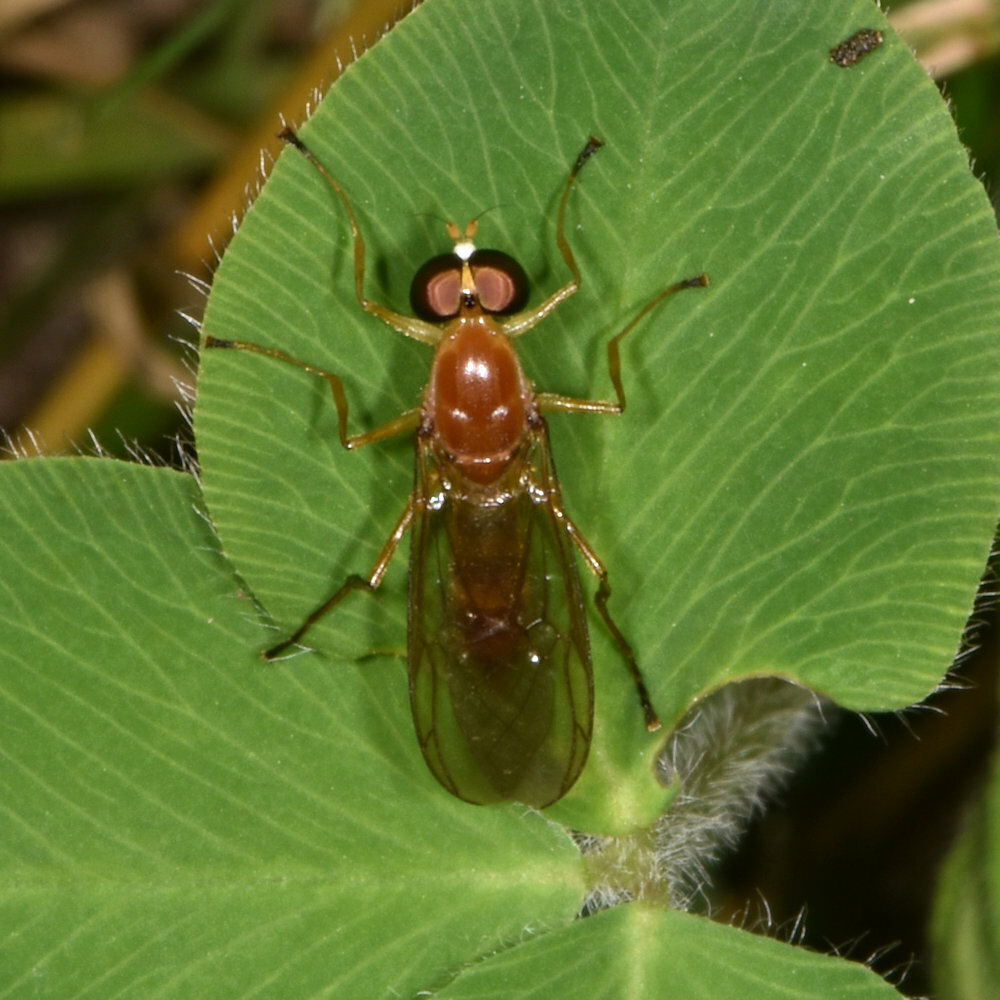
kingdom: Animalia
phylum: Arthropoda
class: Insecta
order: Diptera
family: Stratiomyidae
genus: Ptecticus
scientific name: Ptecticus trivittatus
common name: Compost fly
